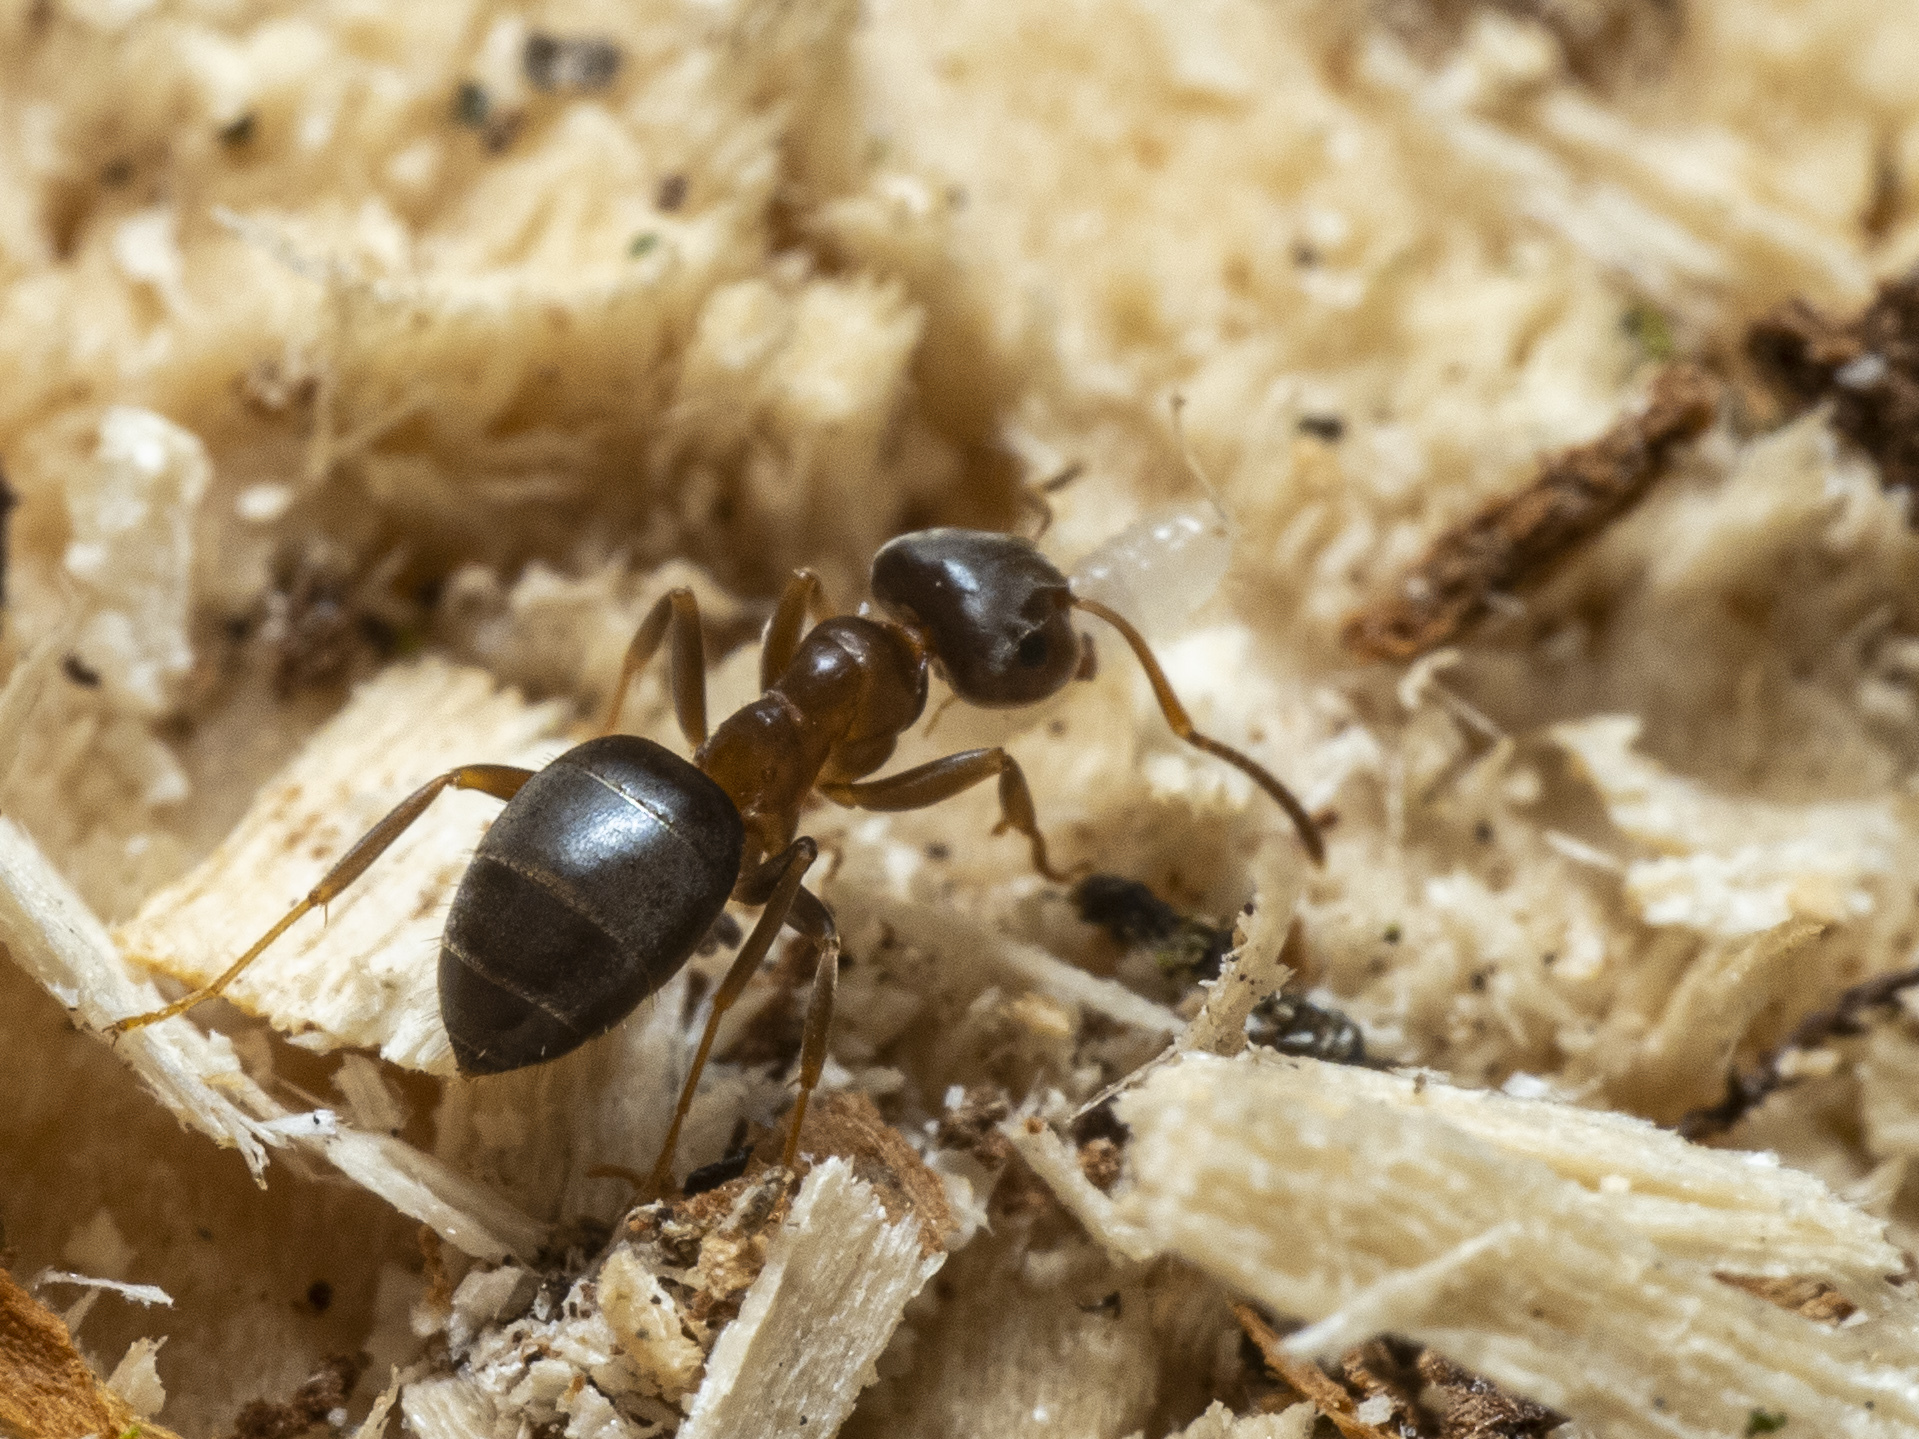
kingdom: Animalia
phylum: Arthropoda
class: Insecta
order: Hymenoptera
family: Formicidae
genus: Lasius
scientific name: Lasius brunneus
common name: Brown ant
